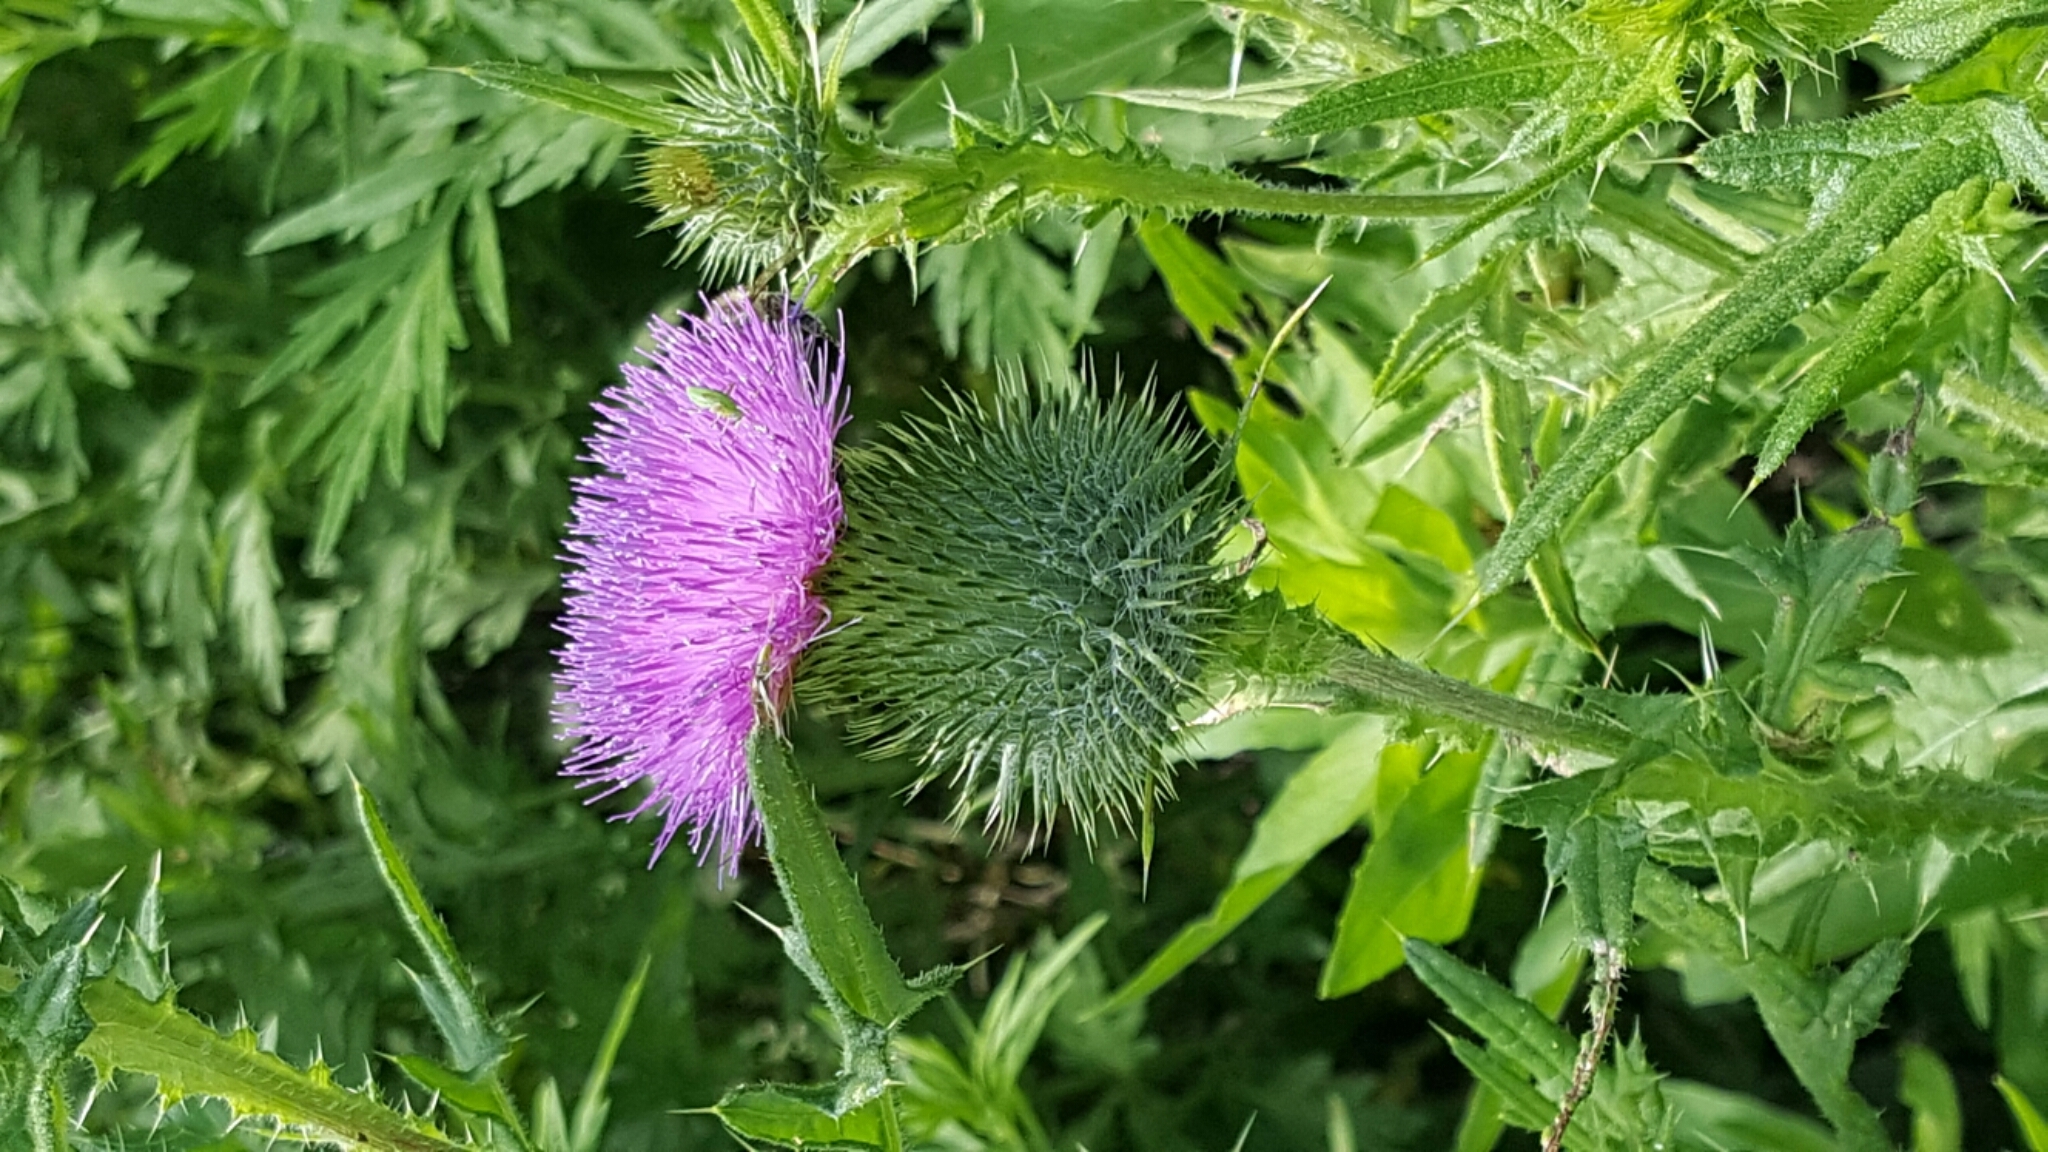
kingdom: Plantae
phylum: Tracheophyta
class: Magnoliopsida
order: Asterales
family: Asteraceae
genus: Cirsium
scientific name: Cirsium vulgare
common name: Bull thistle
